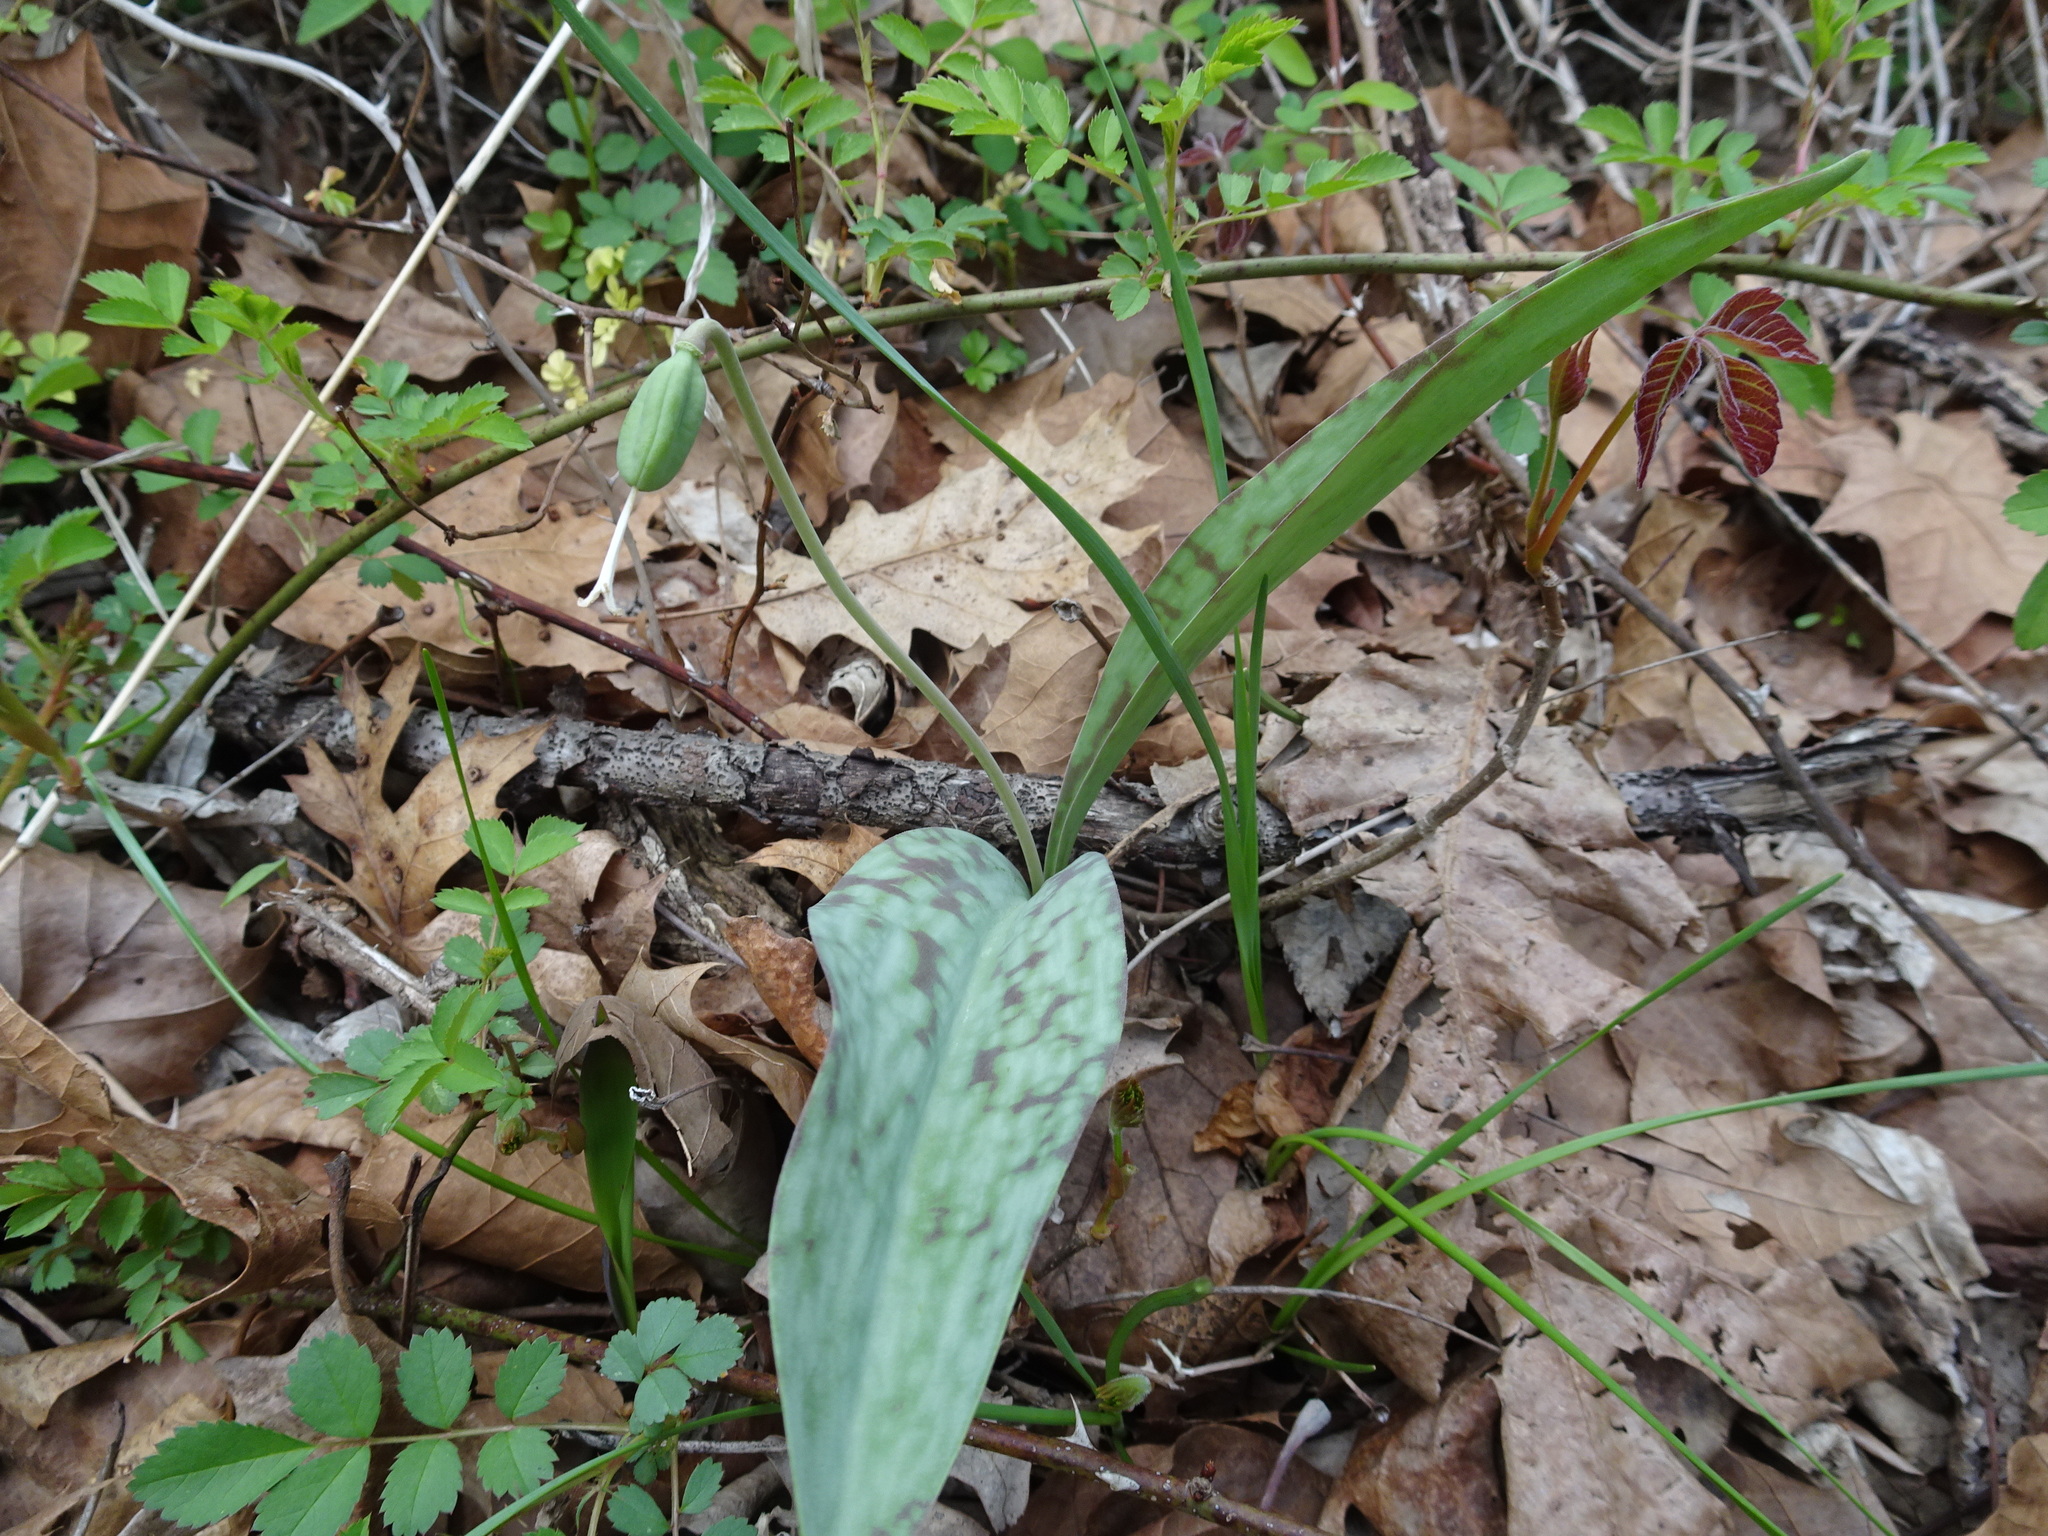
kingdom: Plantae
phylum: Tracheophyta
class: Liliopsida
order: Liliales
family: Liliaceae
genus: Erythronium
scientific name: Erythronium albidum
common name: White trout-lily
